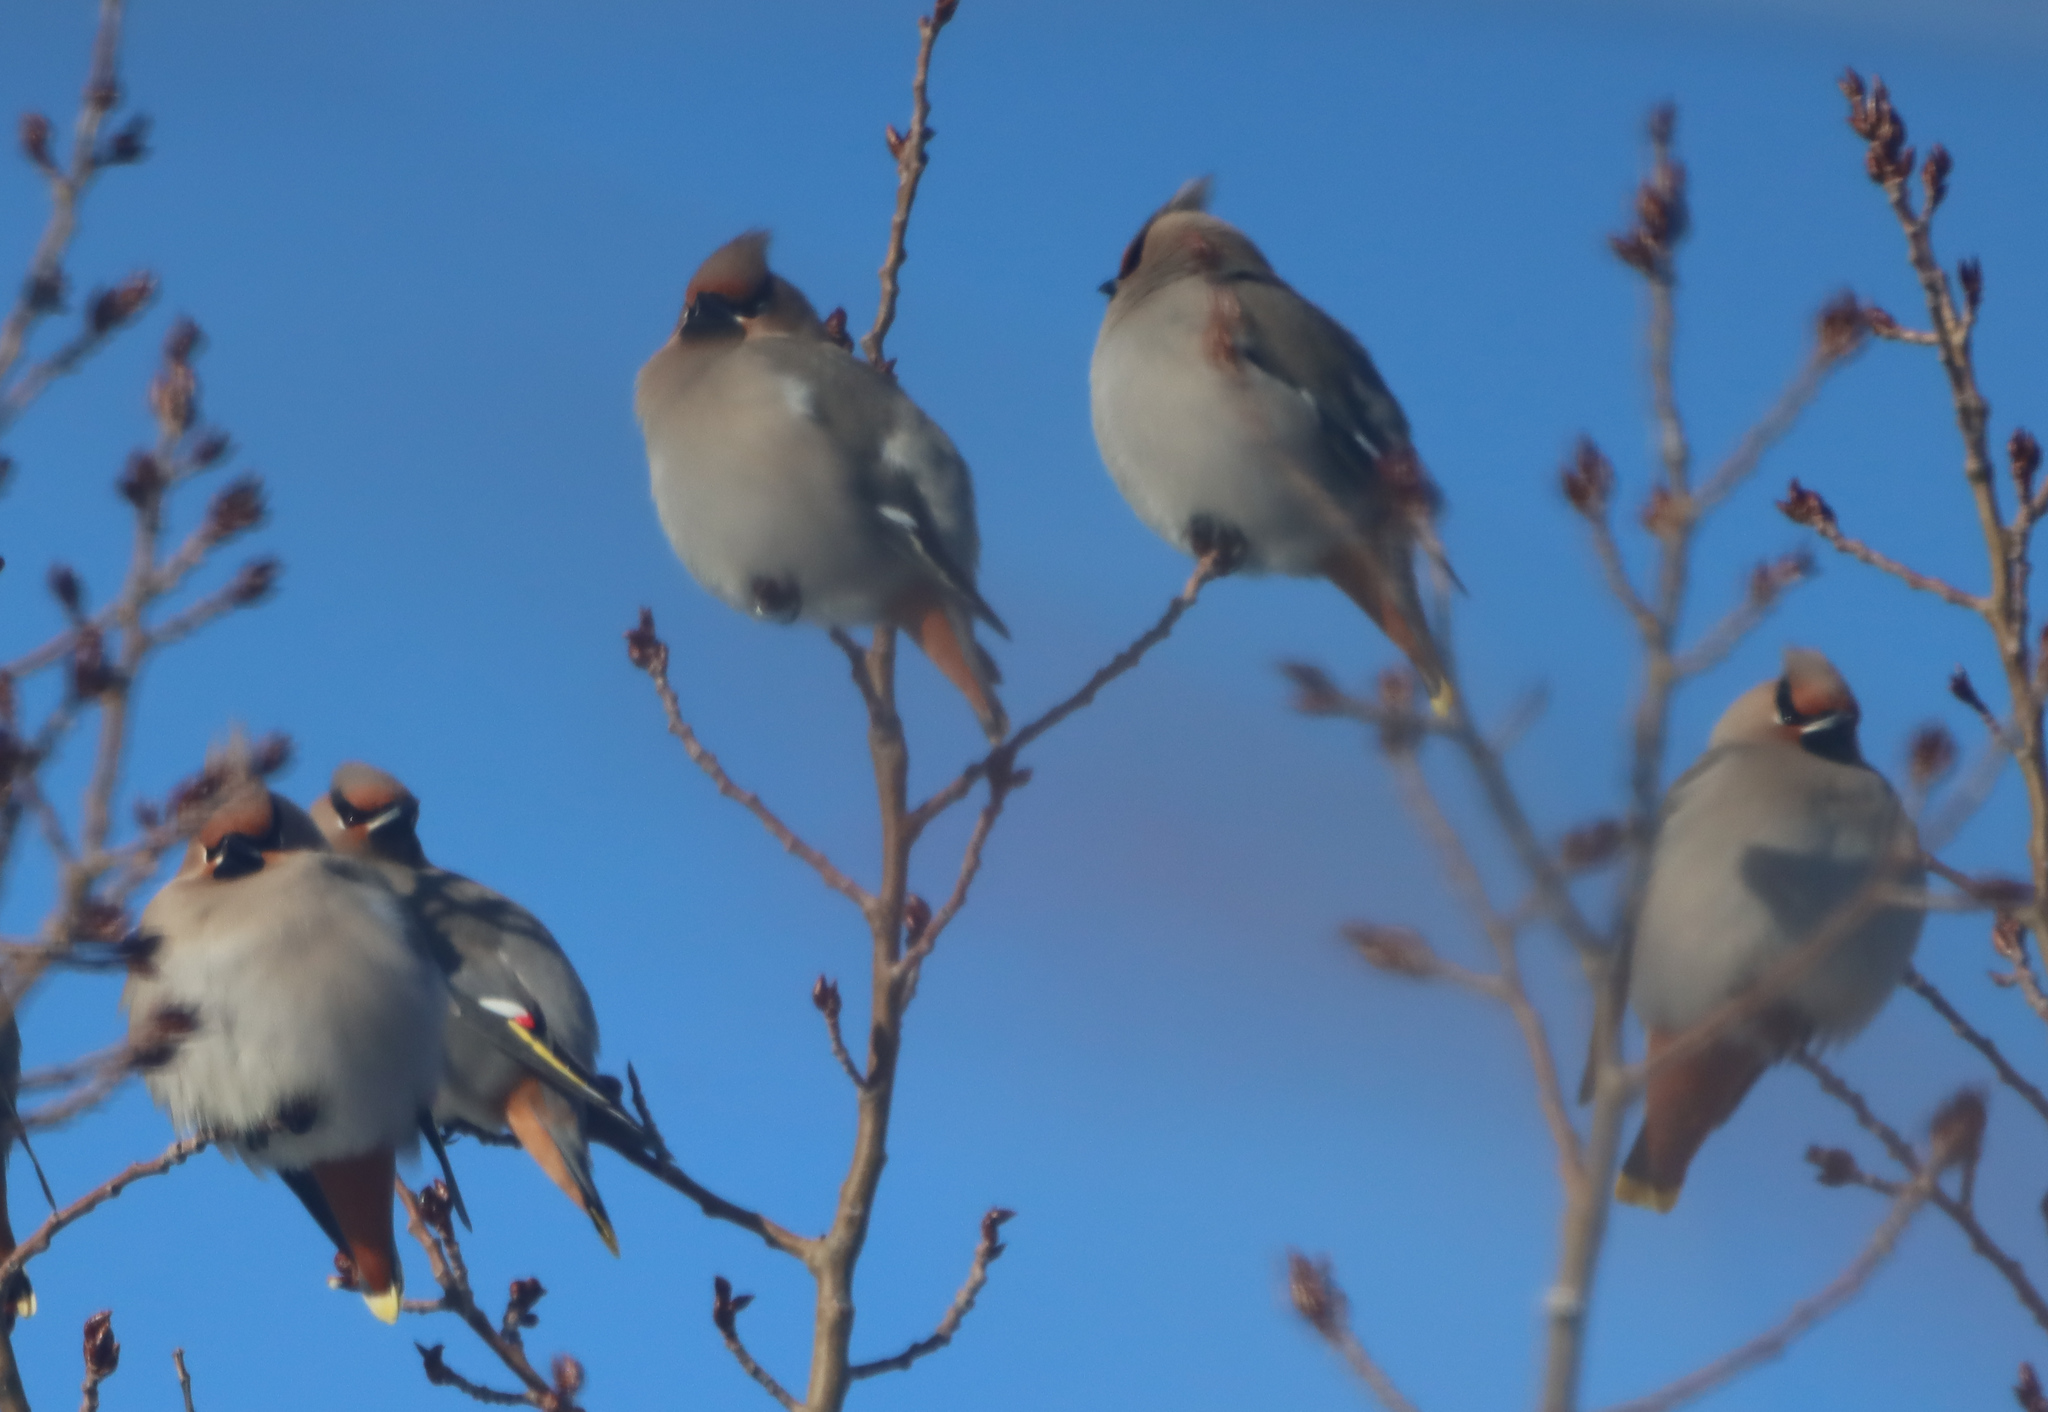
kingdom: Animalia
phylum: Chordata
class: Aves
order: Passeriformes
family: Bombycillidae
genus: Bombycilla
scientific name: Bombycilla garrulus
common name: Bohemian waxwing
